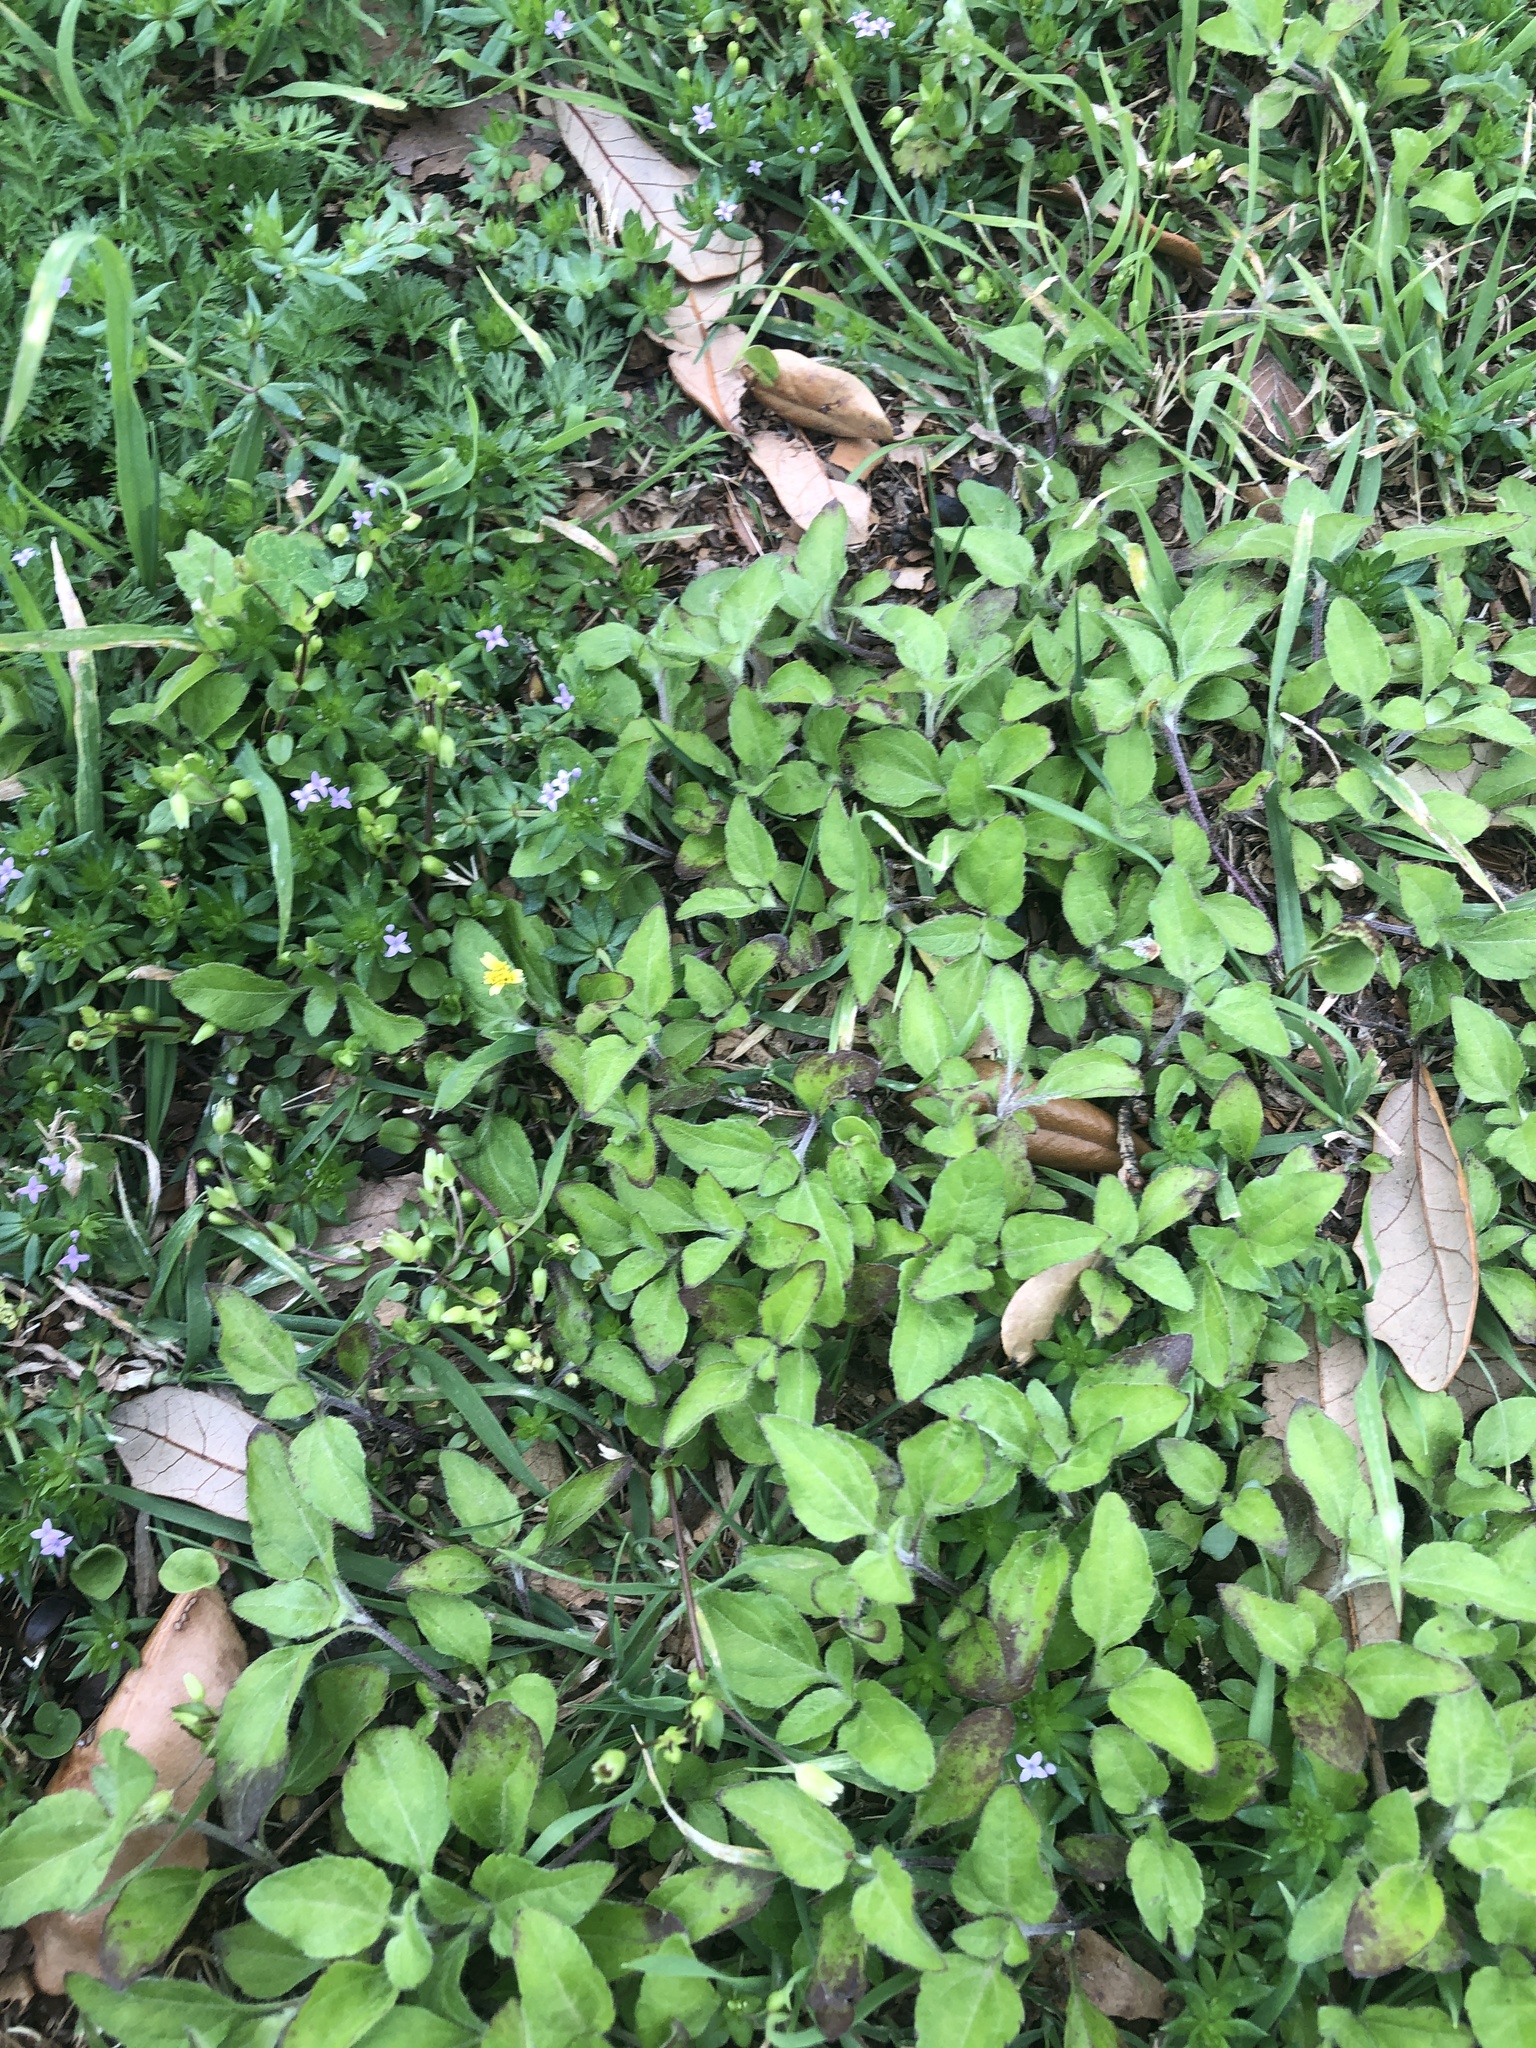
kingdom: Plantae
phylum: Tracheophyta
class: Magnoliopsida
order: Asterales
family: Asteraceae
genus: Calyptocarpus
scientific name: Calyptocarpus vialis
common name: Straggler daisy
